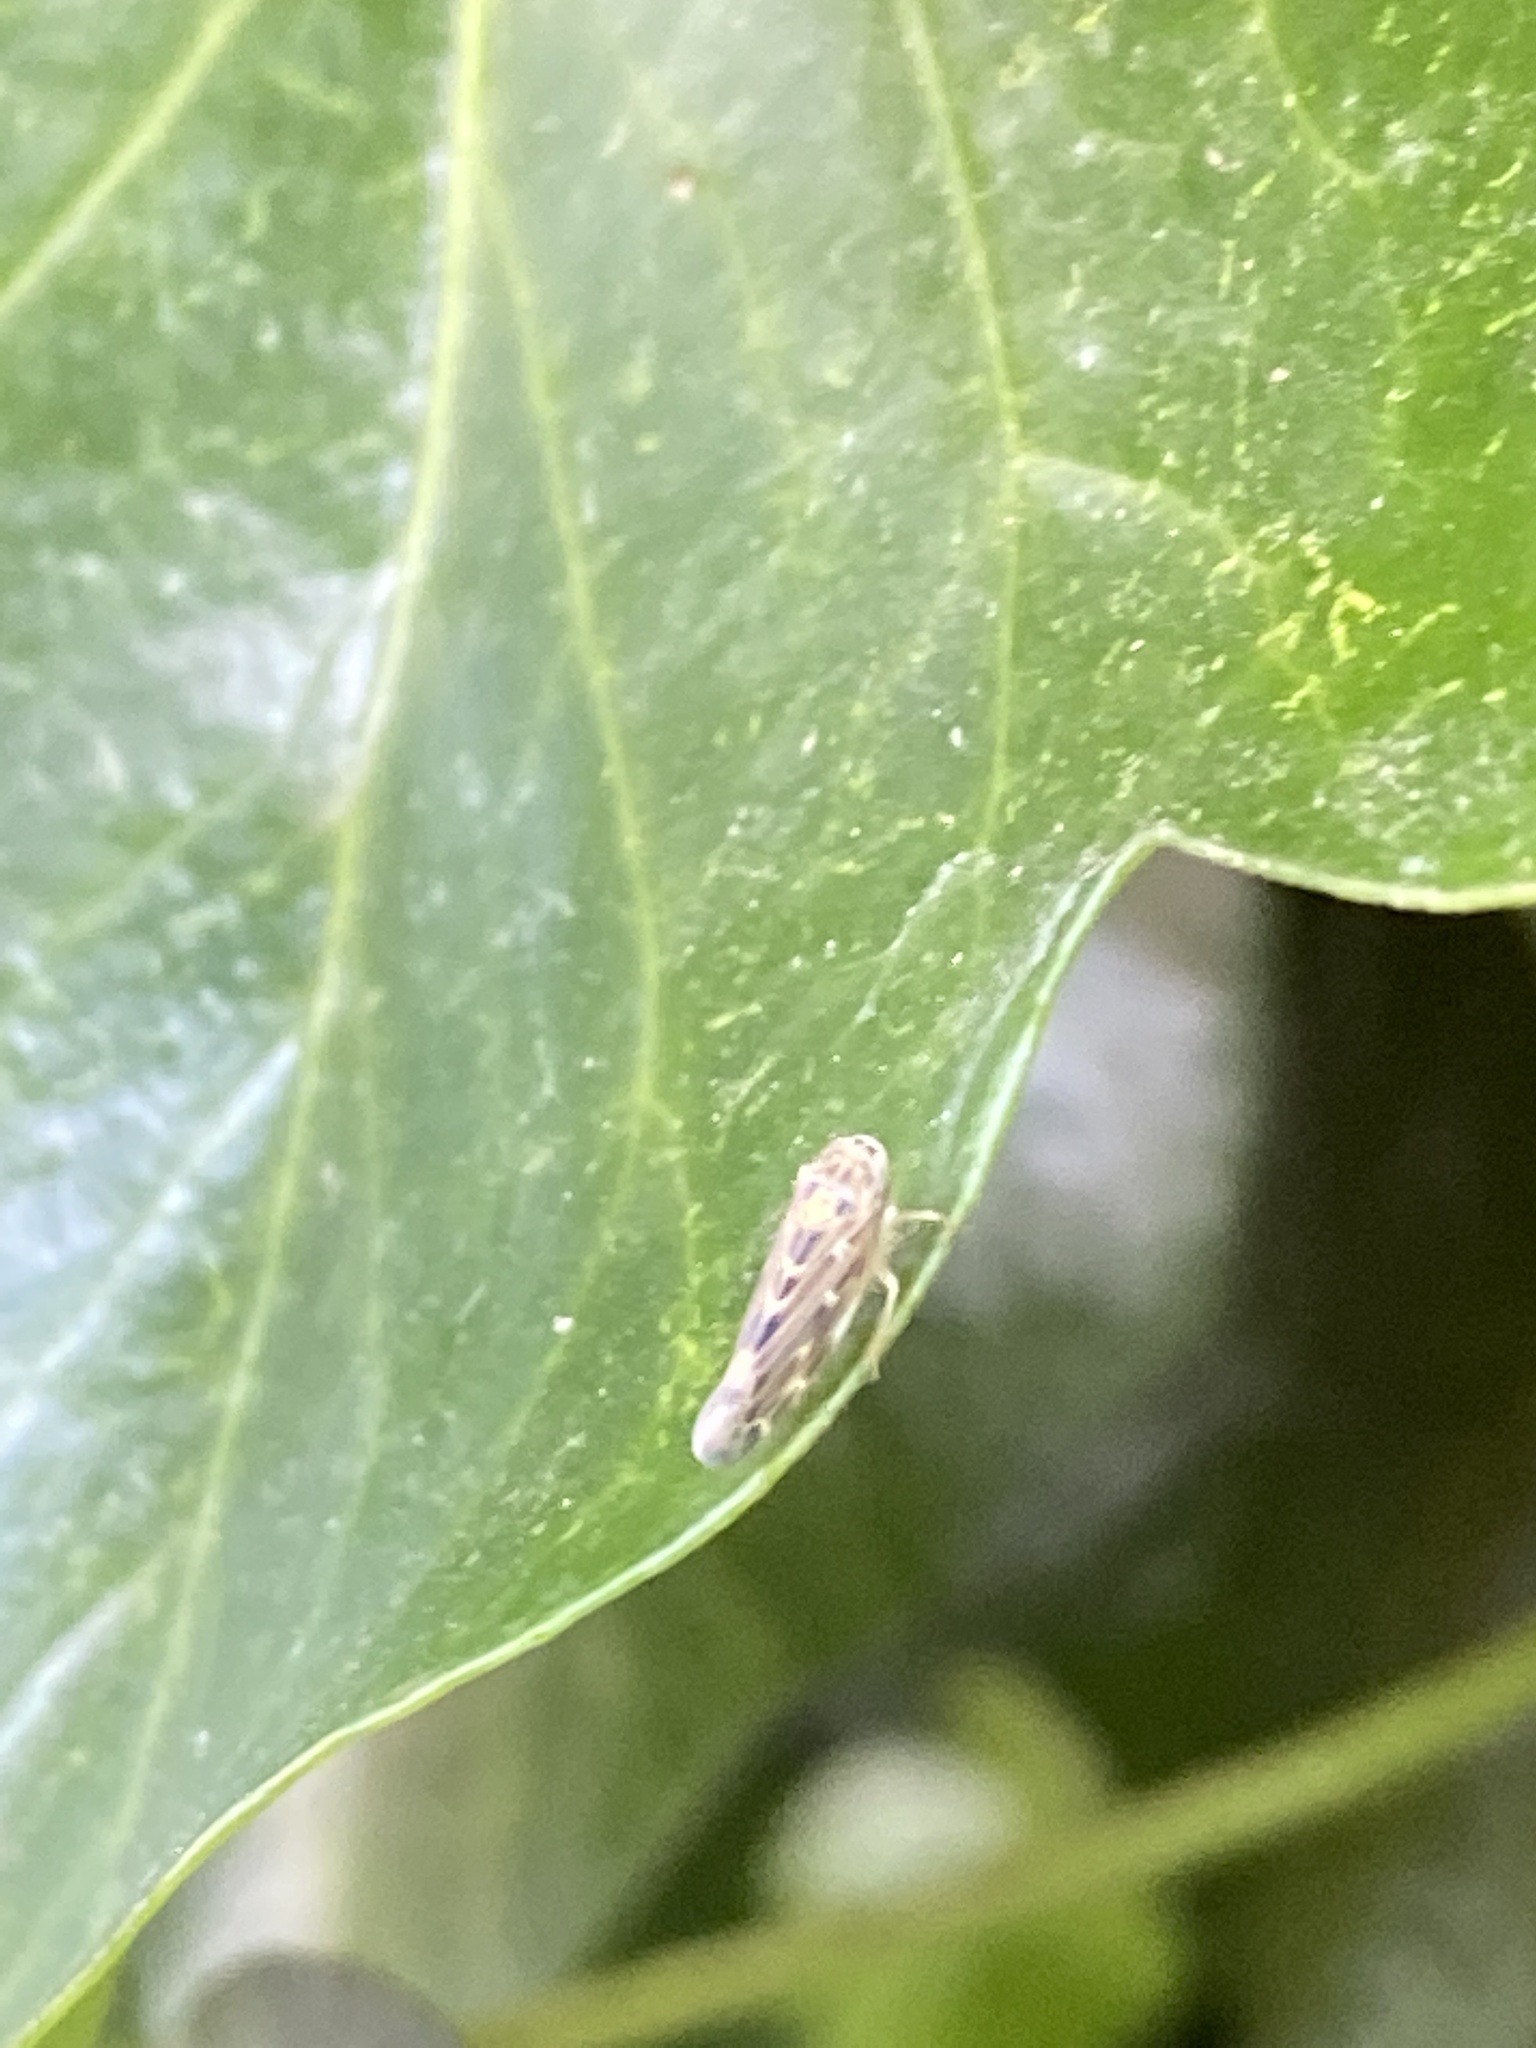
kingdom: Animalia
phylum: Arthropoda
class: Insecta
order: Hemiptera
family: Cicadellidae
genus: Lamprotettix
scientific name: Lamprotettix nitidulus
